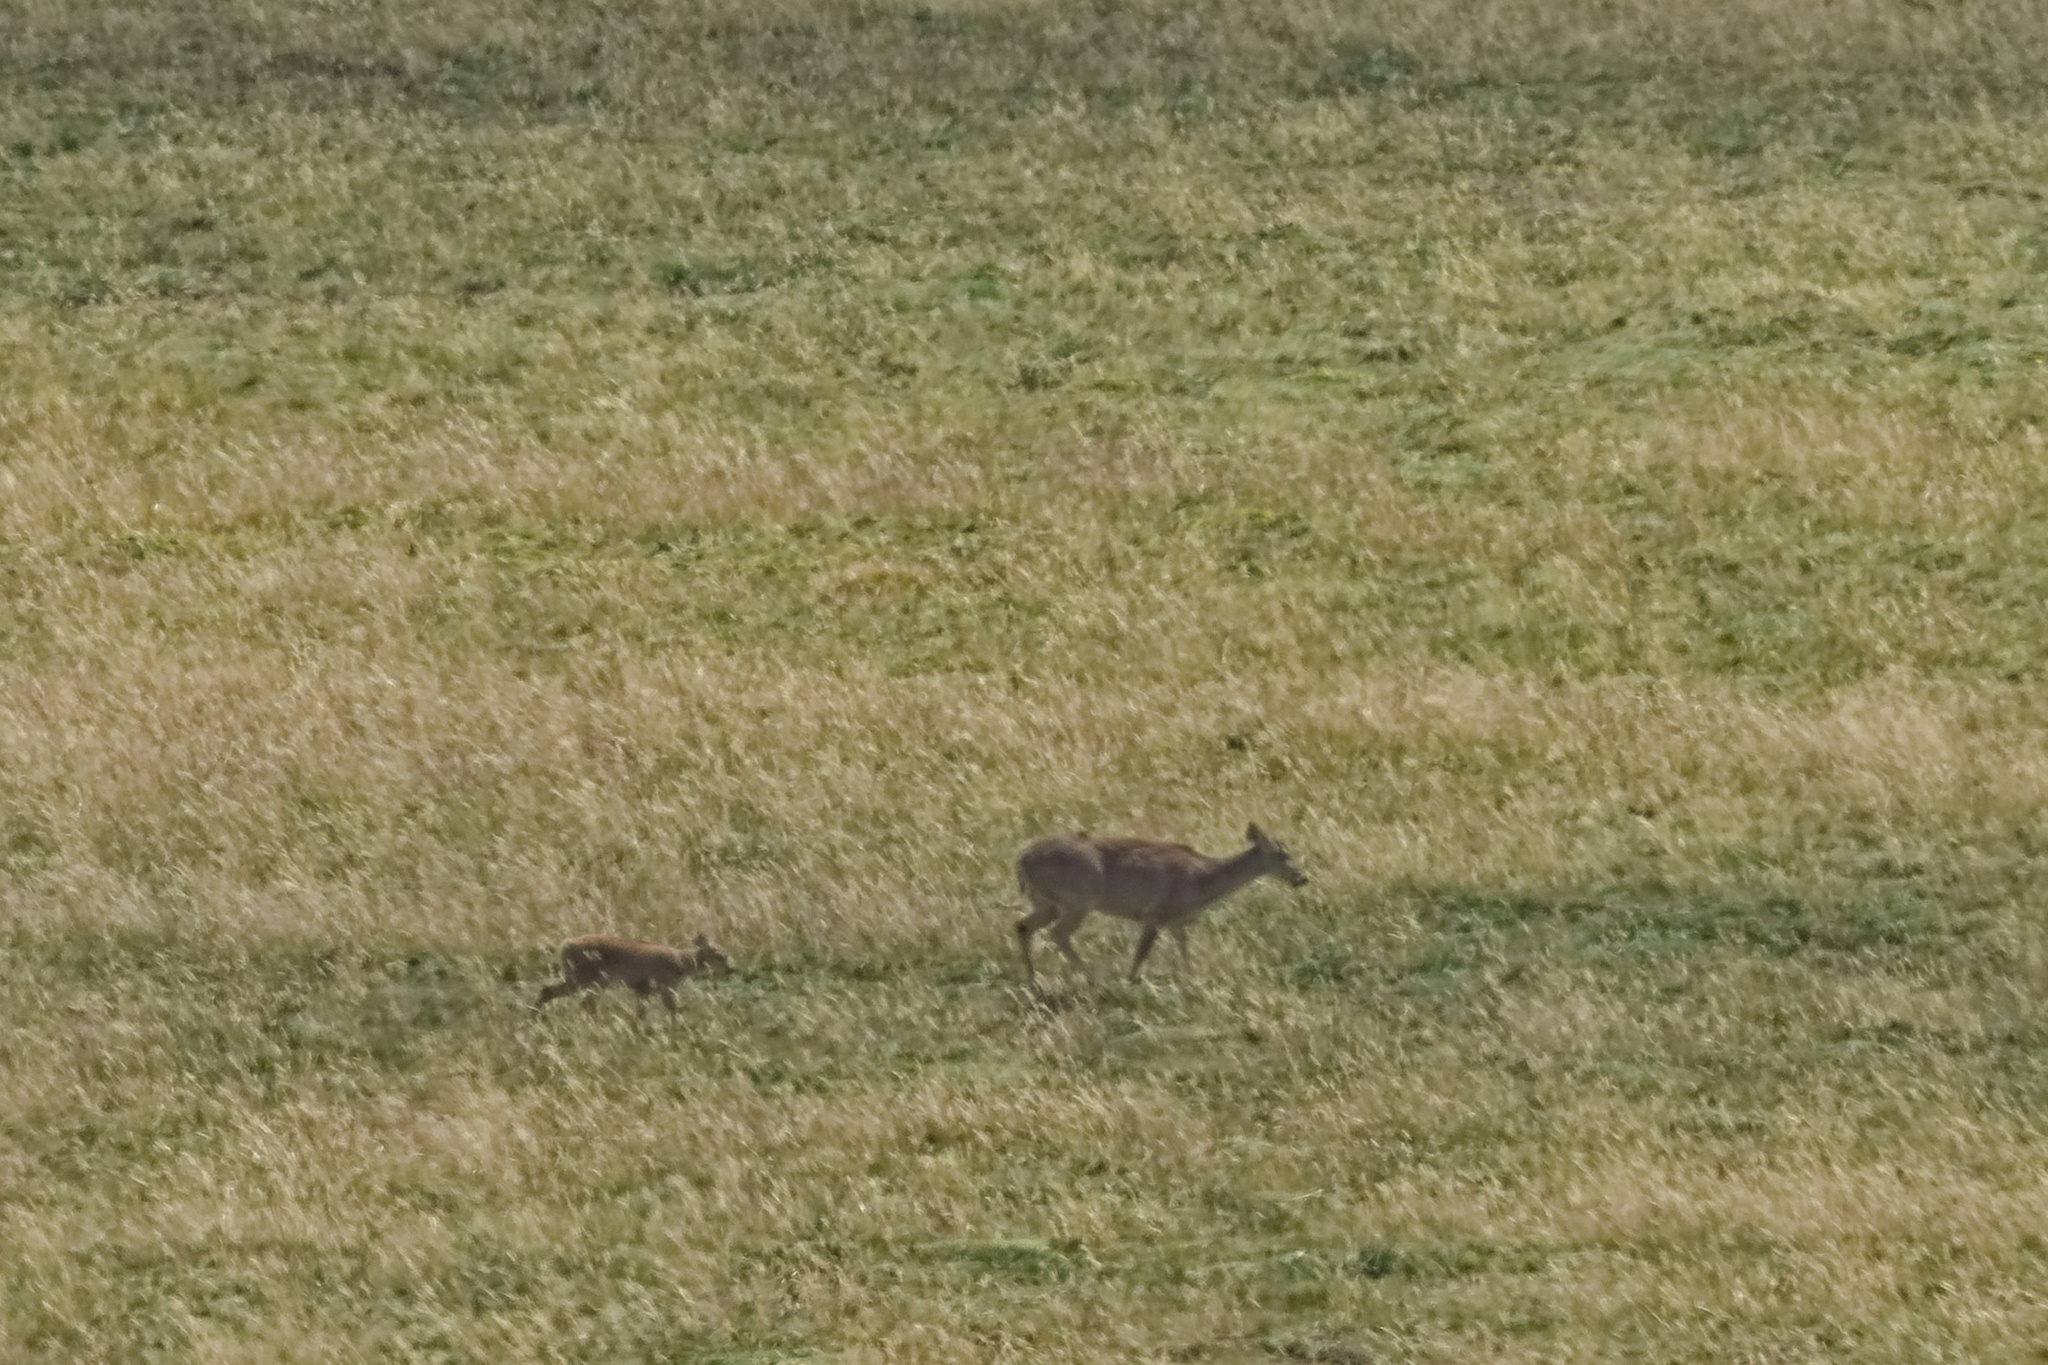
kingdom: Animalia
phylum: Chordata
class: Mammalia
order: Artiodactyla
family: Cervidae
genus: Odocoileus
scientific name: Odocoileus virginianus
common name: White-tailed deer
